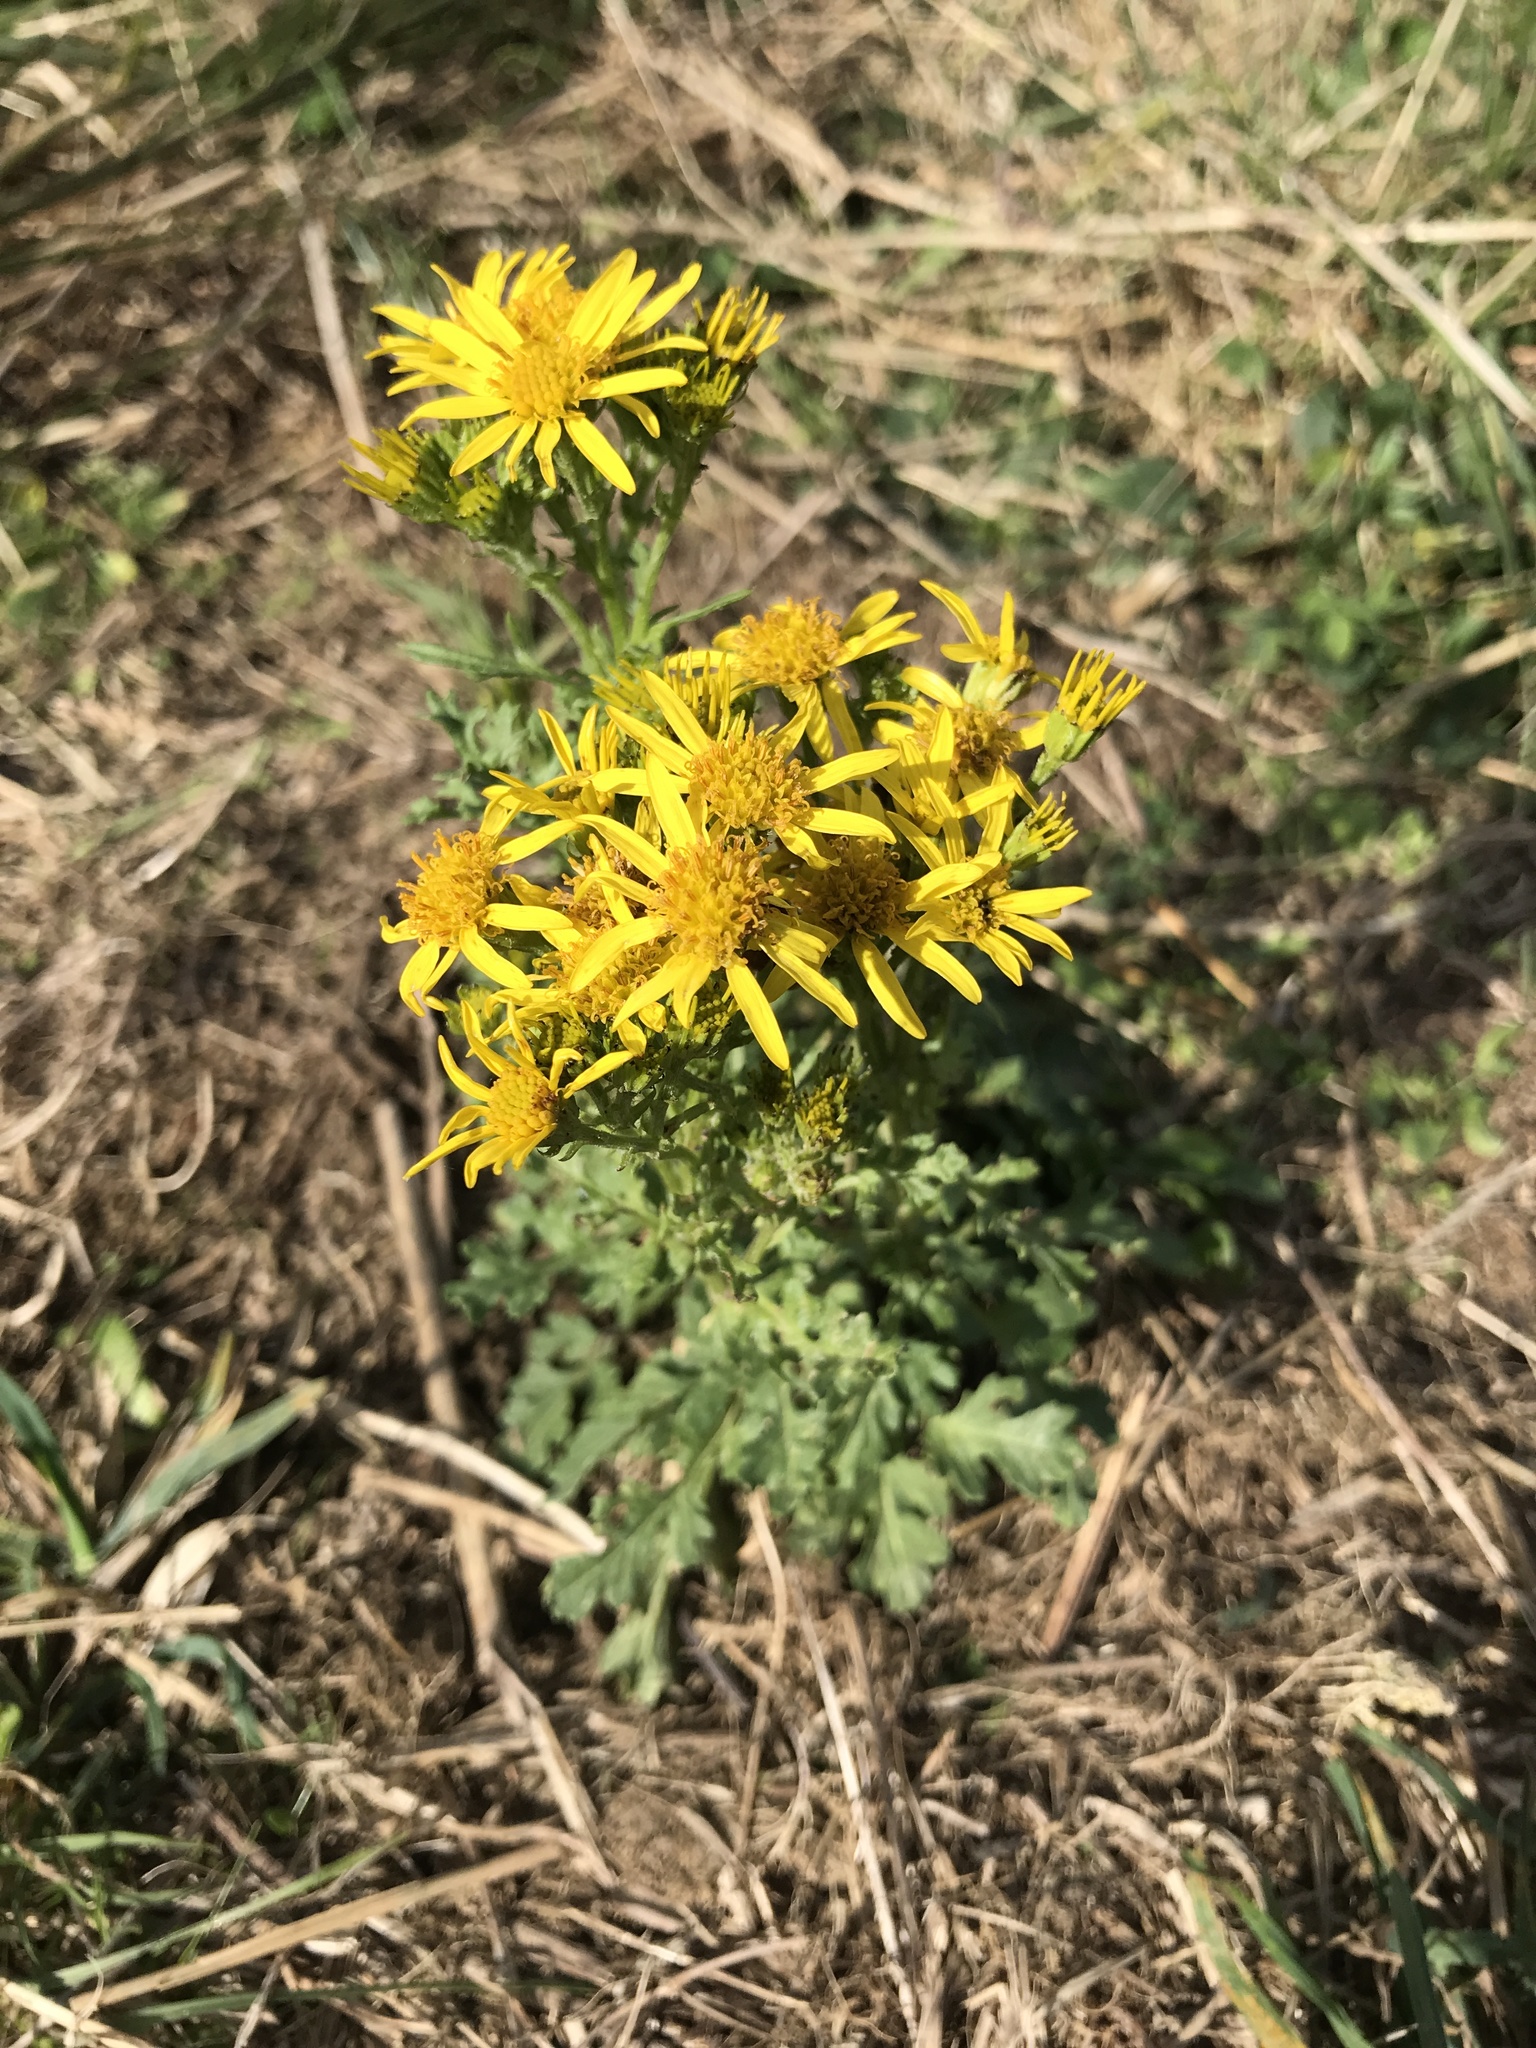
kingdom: Plantae
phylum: Tracheophyta
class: Magnoliopsida
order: Asterales
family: Asteraceae
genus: Jacobaea
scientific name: Jacobaea vulgaris
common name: Stinking willie
